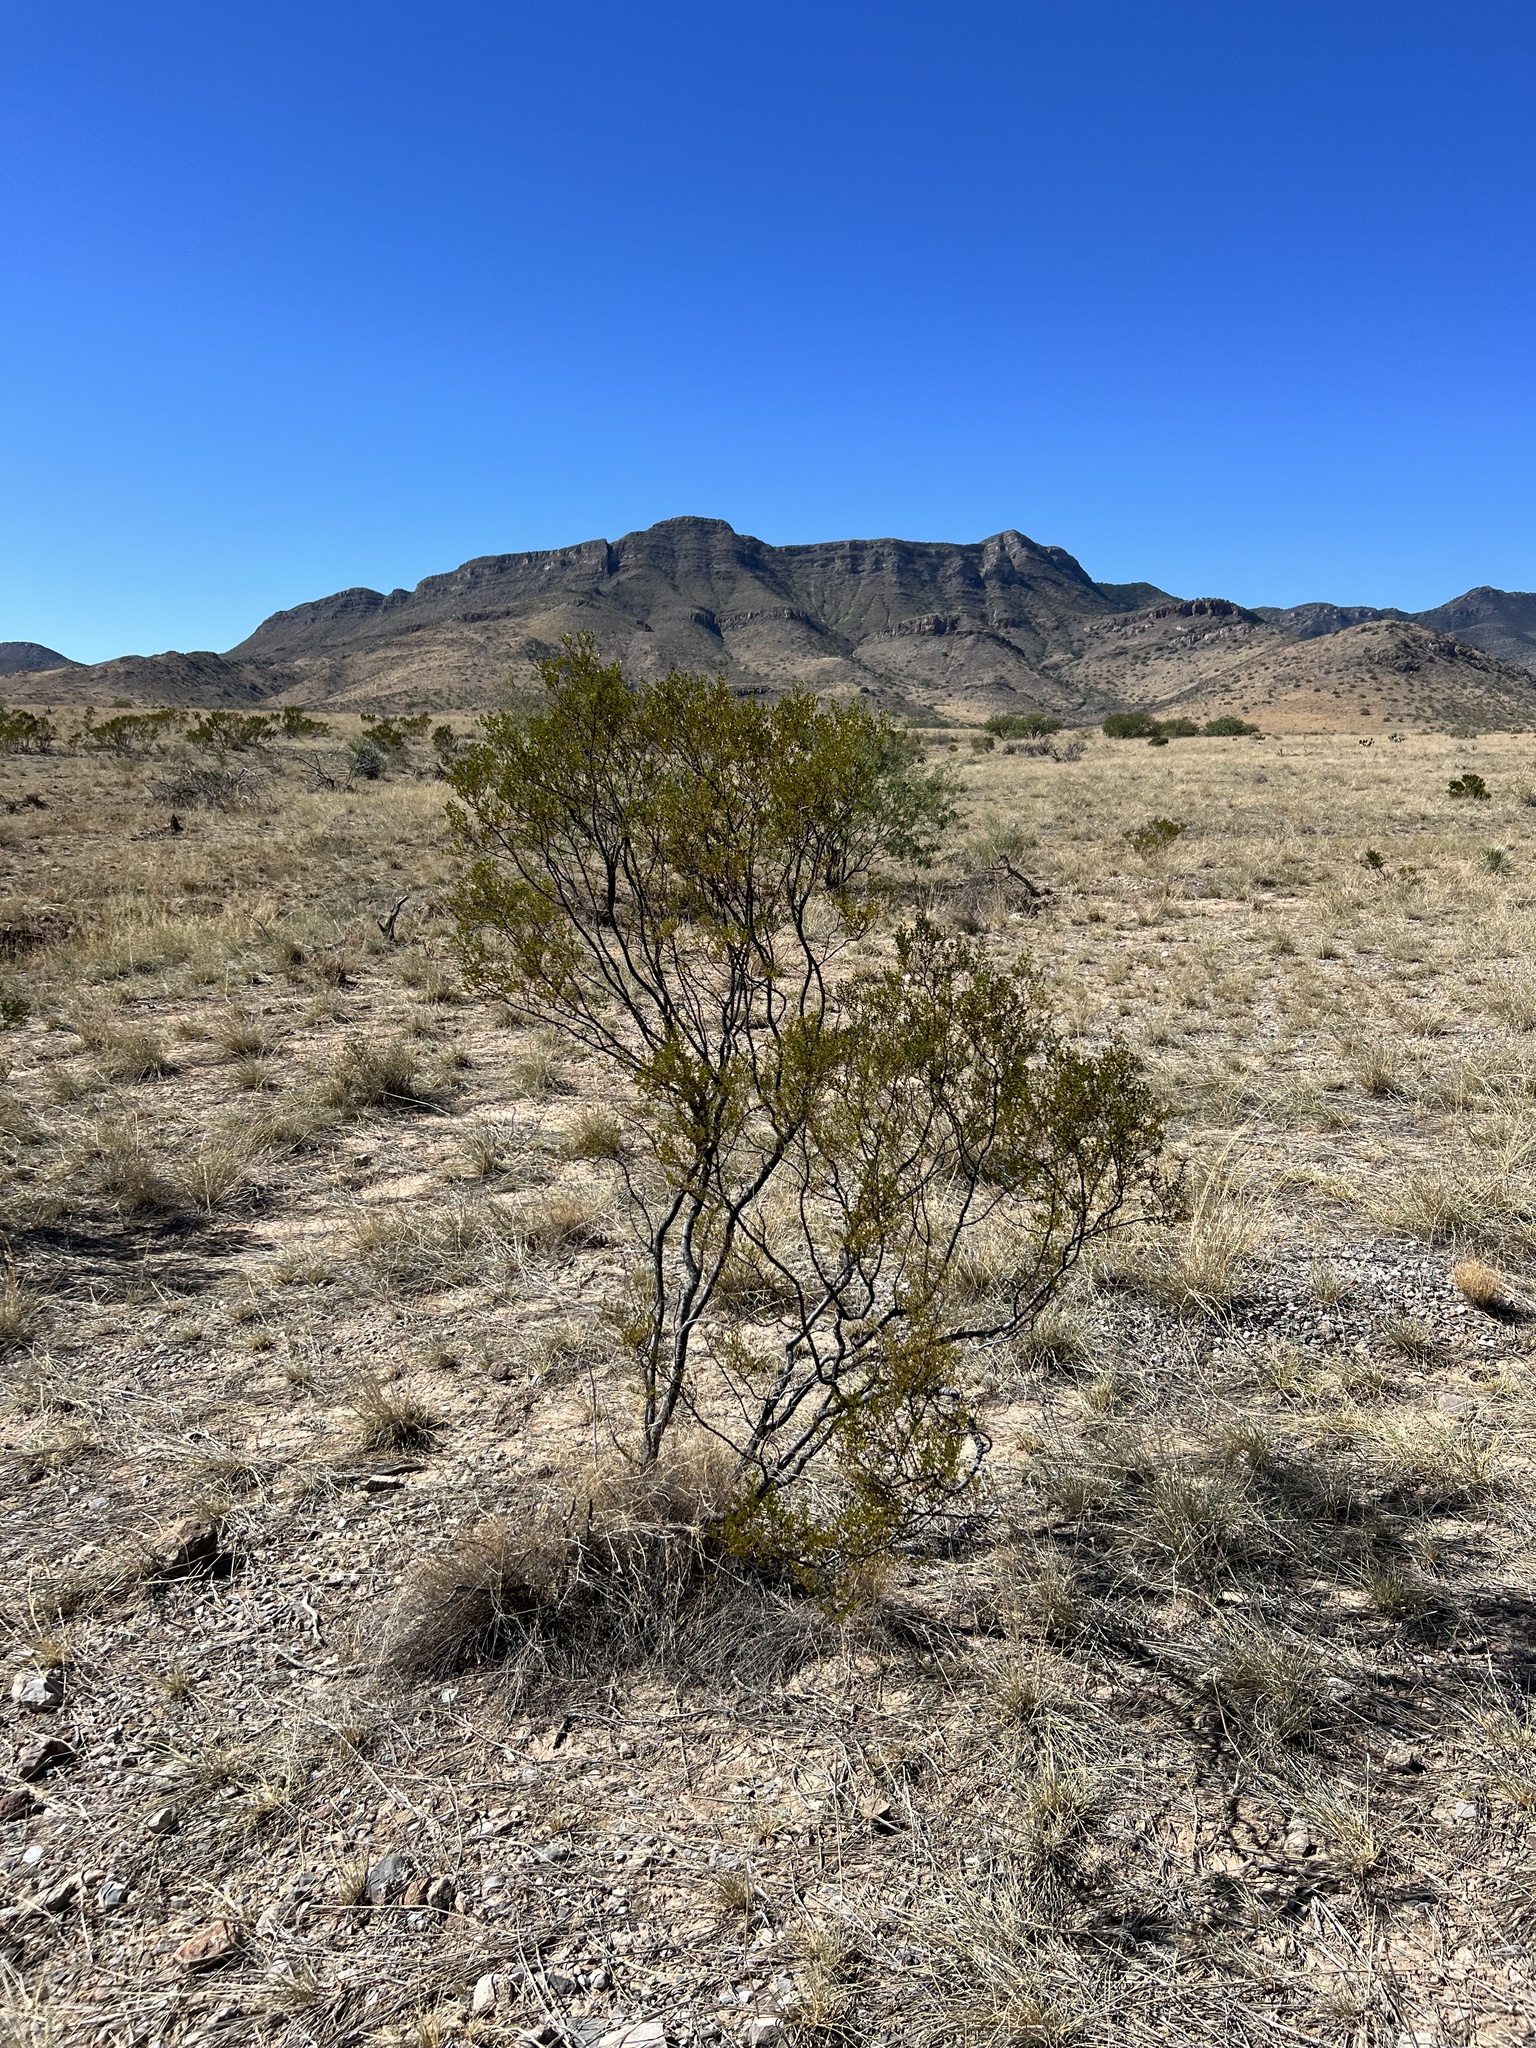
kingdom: Plantae
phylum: Tracheophyta
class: Magnoliopsida
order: Zygophyllales
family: Zygophyllaceae
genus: Larrea
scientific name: Larrea tridentata
